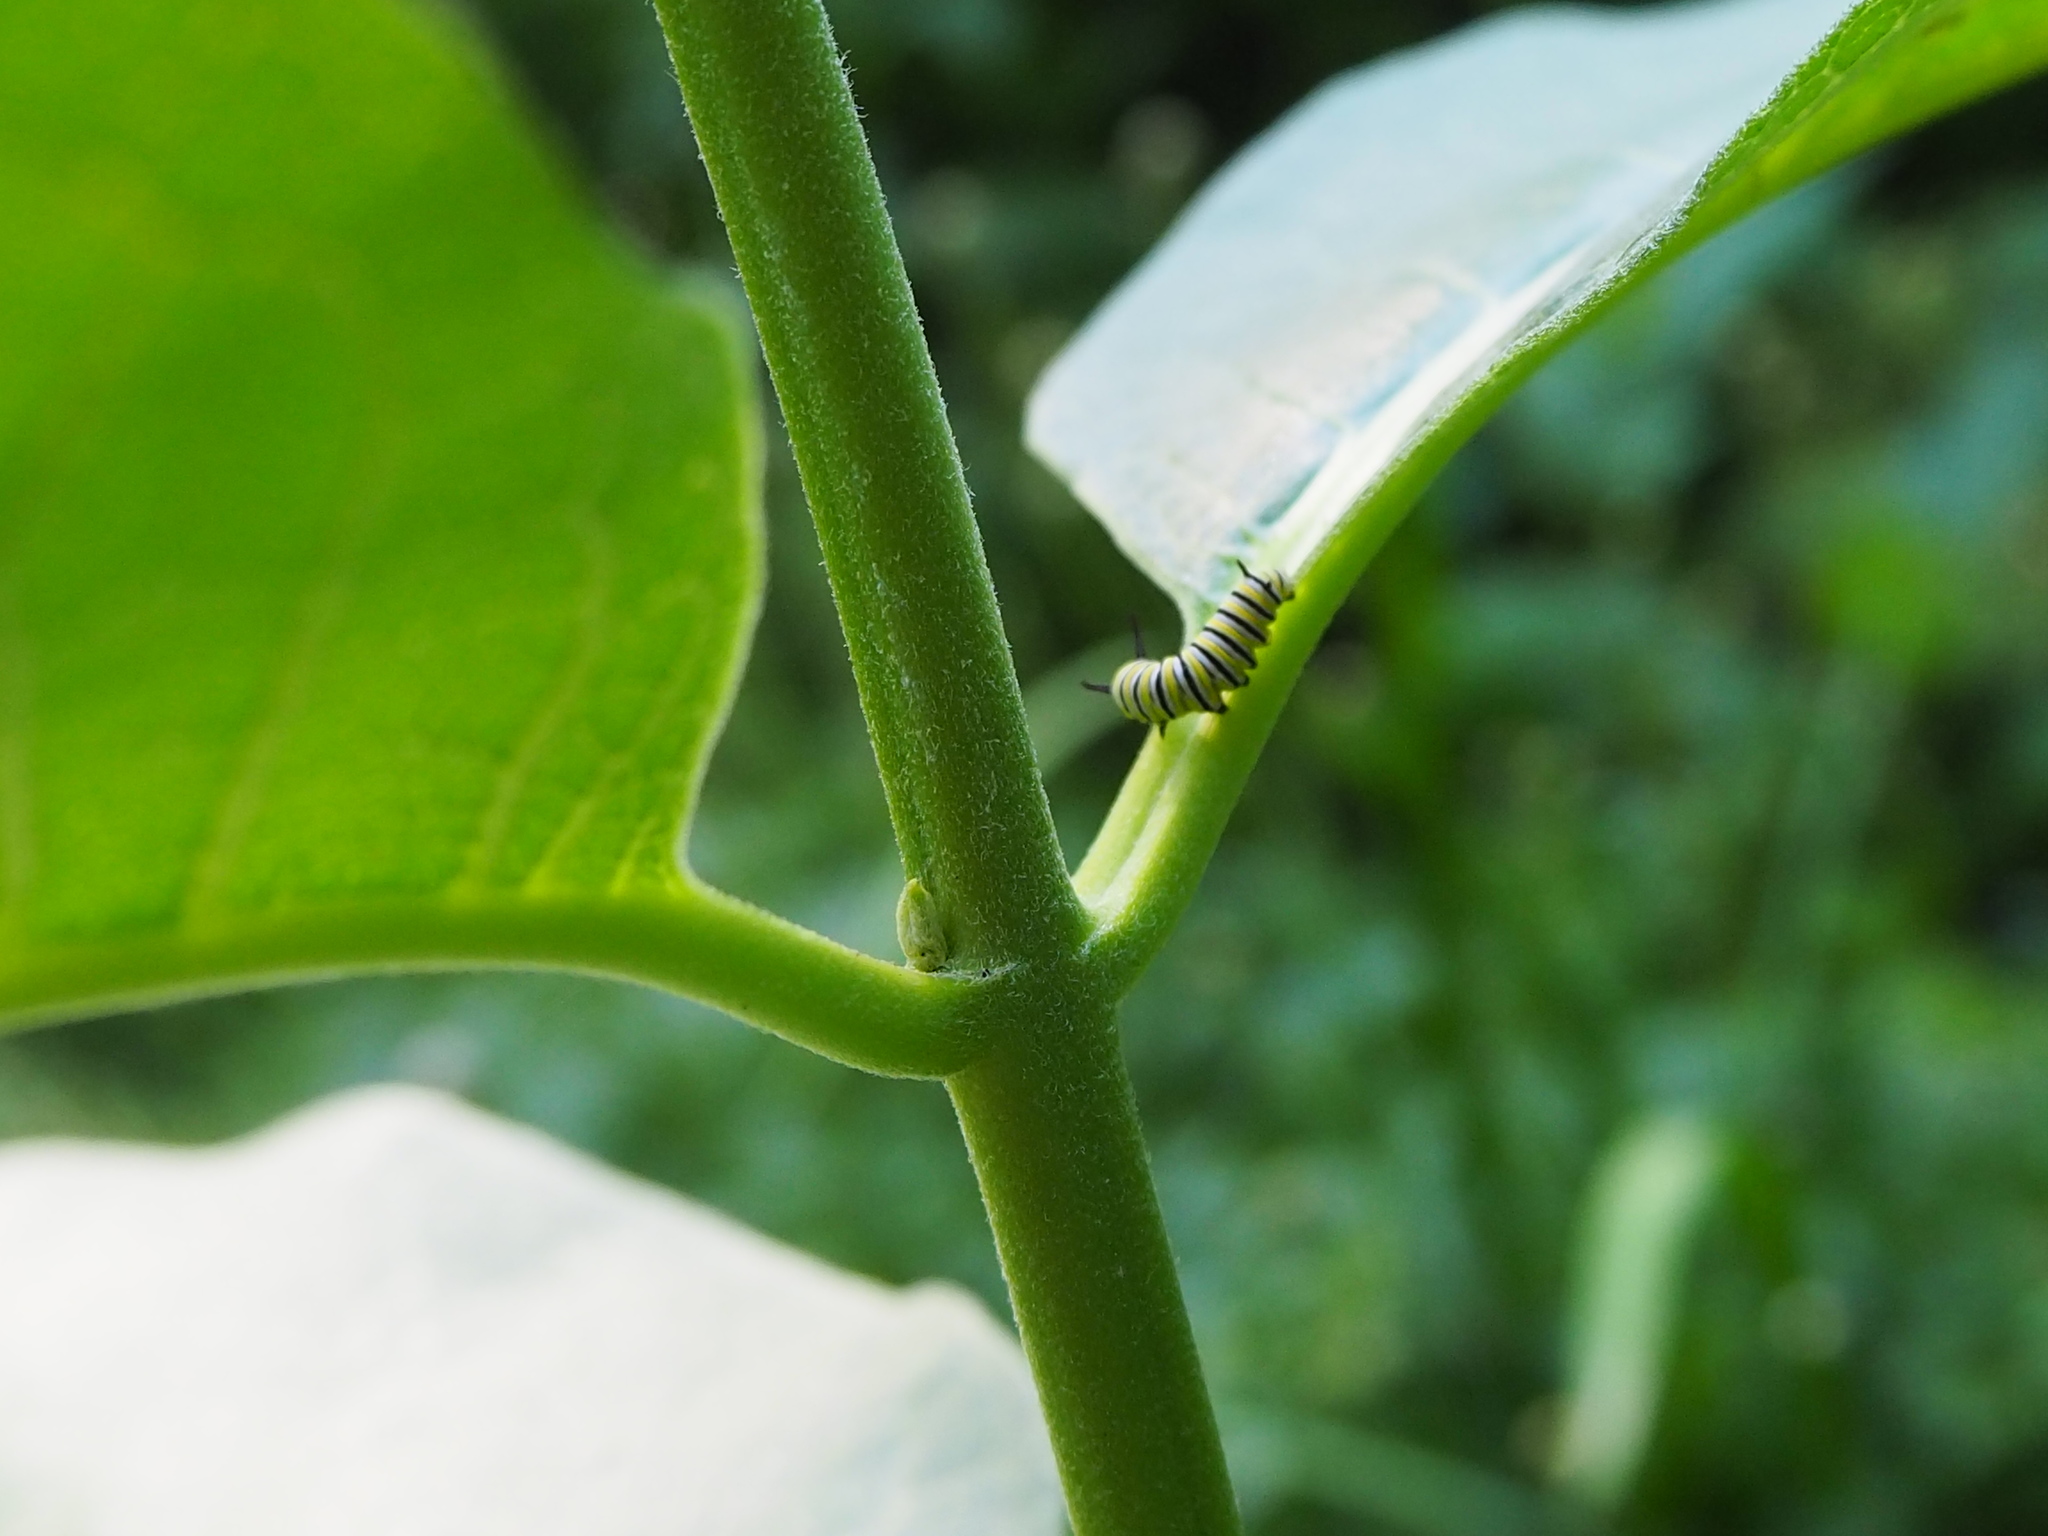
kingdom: Animalia
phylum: Arthropoda
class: Insecta
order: Lepidoptera
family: Nymphalidae
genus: Danaus
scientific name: Danaus plexippus
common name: Monarch
